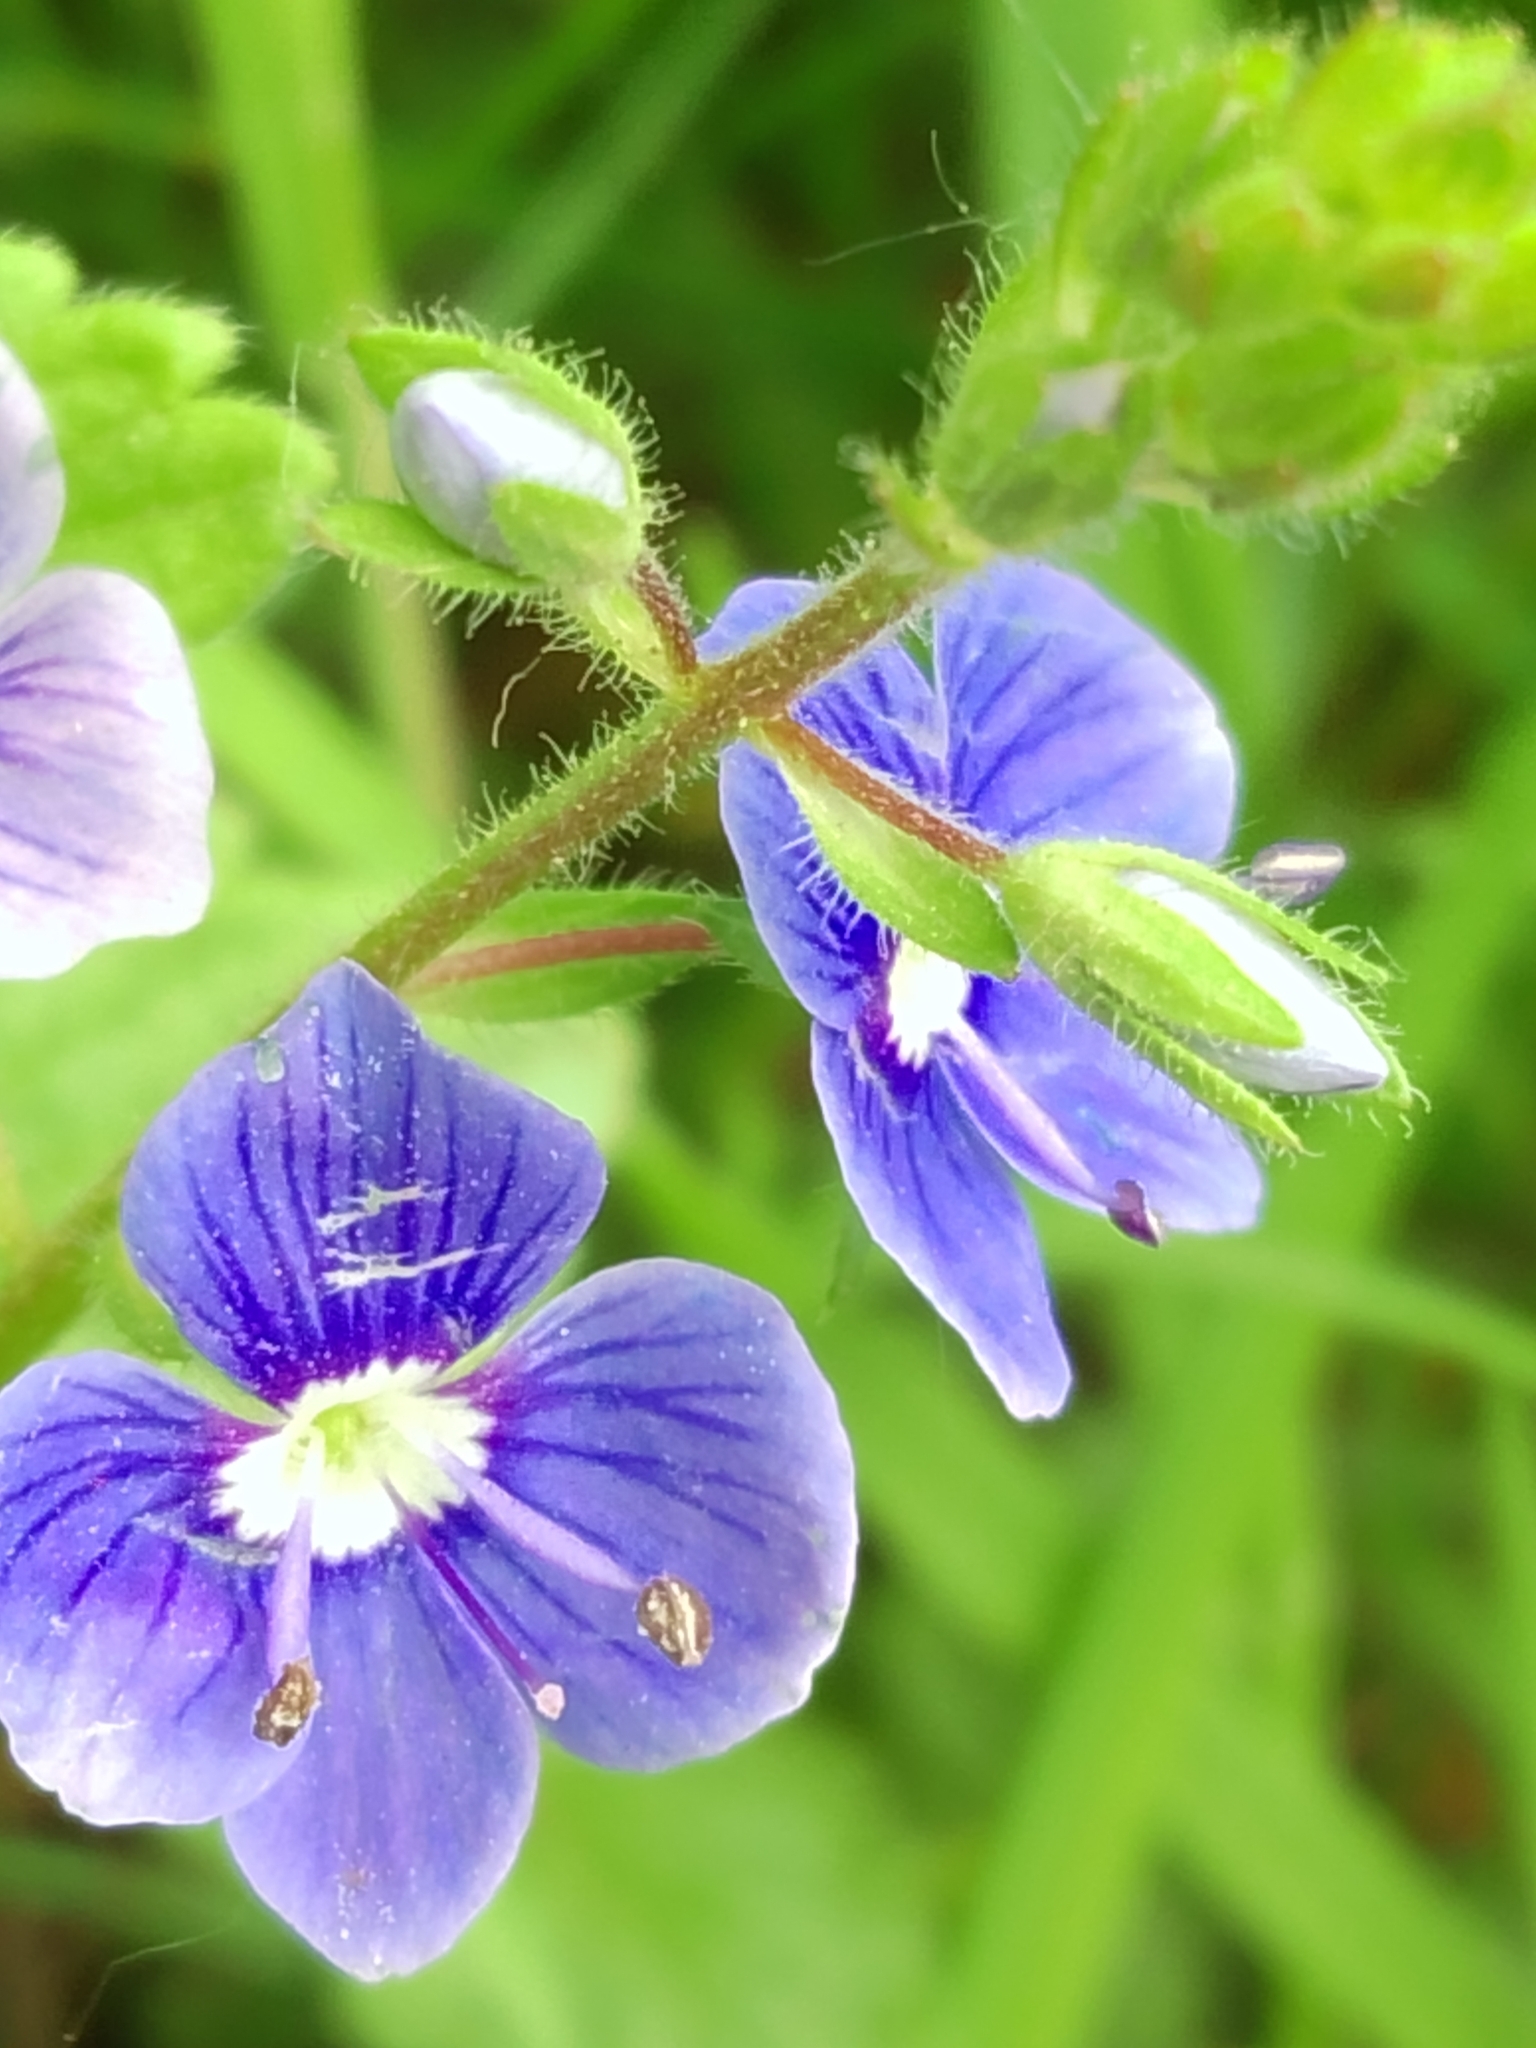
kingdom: Plantae
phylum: Tracheophyta
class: Magnoliopsida
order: Lamiales
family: Plantaginaceae
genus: Veronica
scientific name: Veronica chamaedrys
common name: Germander speedwell
